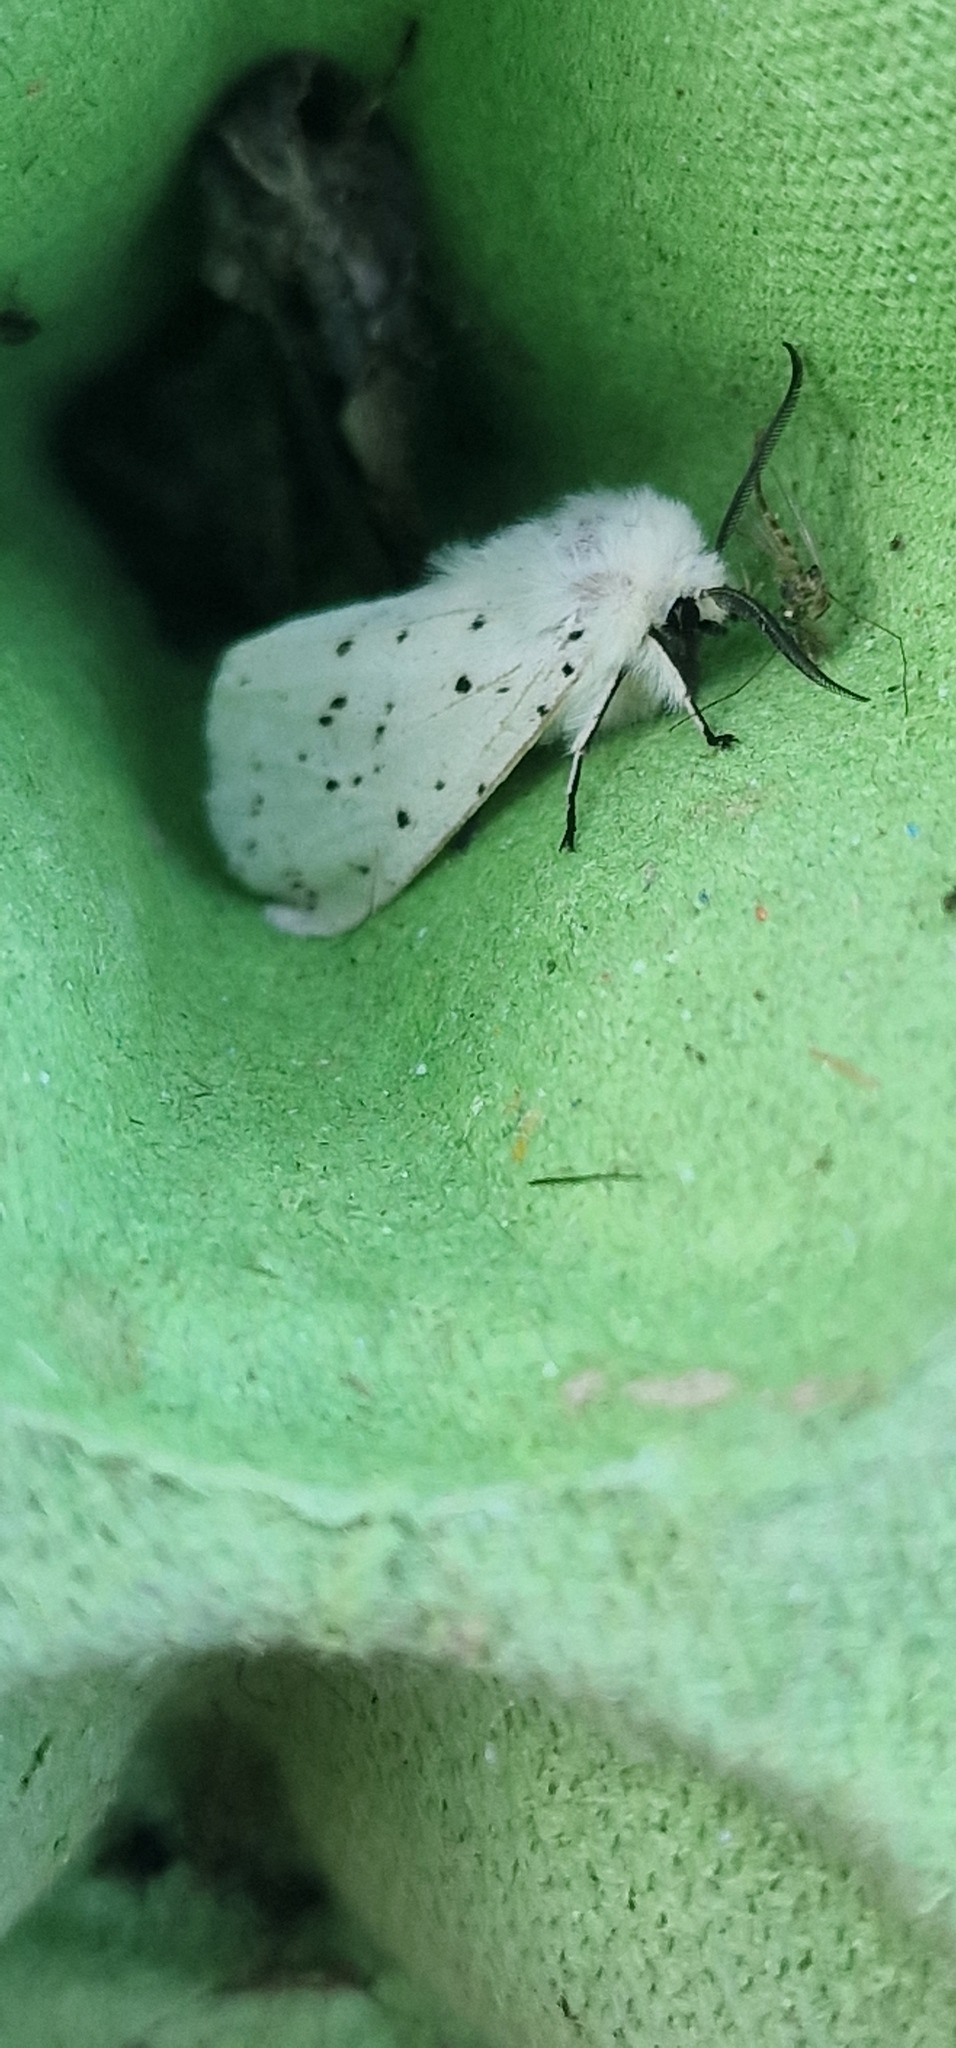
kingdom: Animalia
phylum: Arthropoda
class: Insecta
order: Lepidoptera
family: Erebidae
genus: Spilosoma
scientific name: Spilosoma lubricipeda
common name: White ermine
